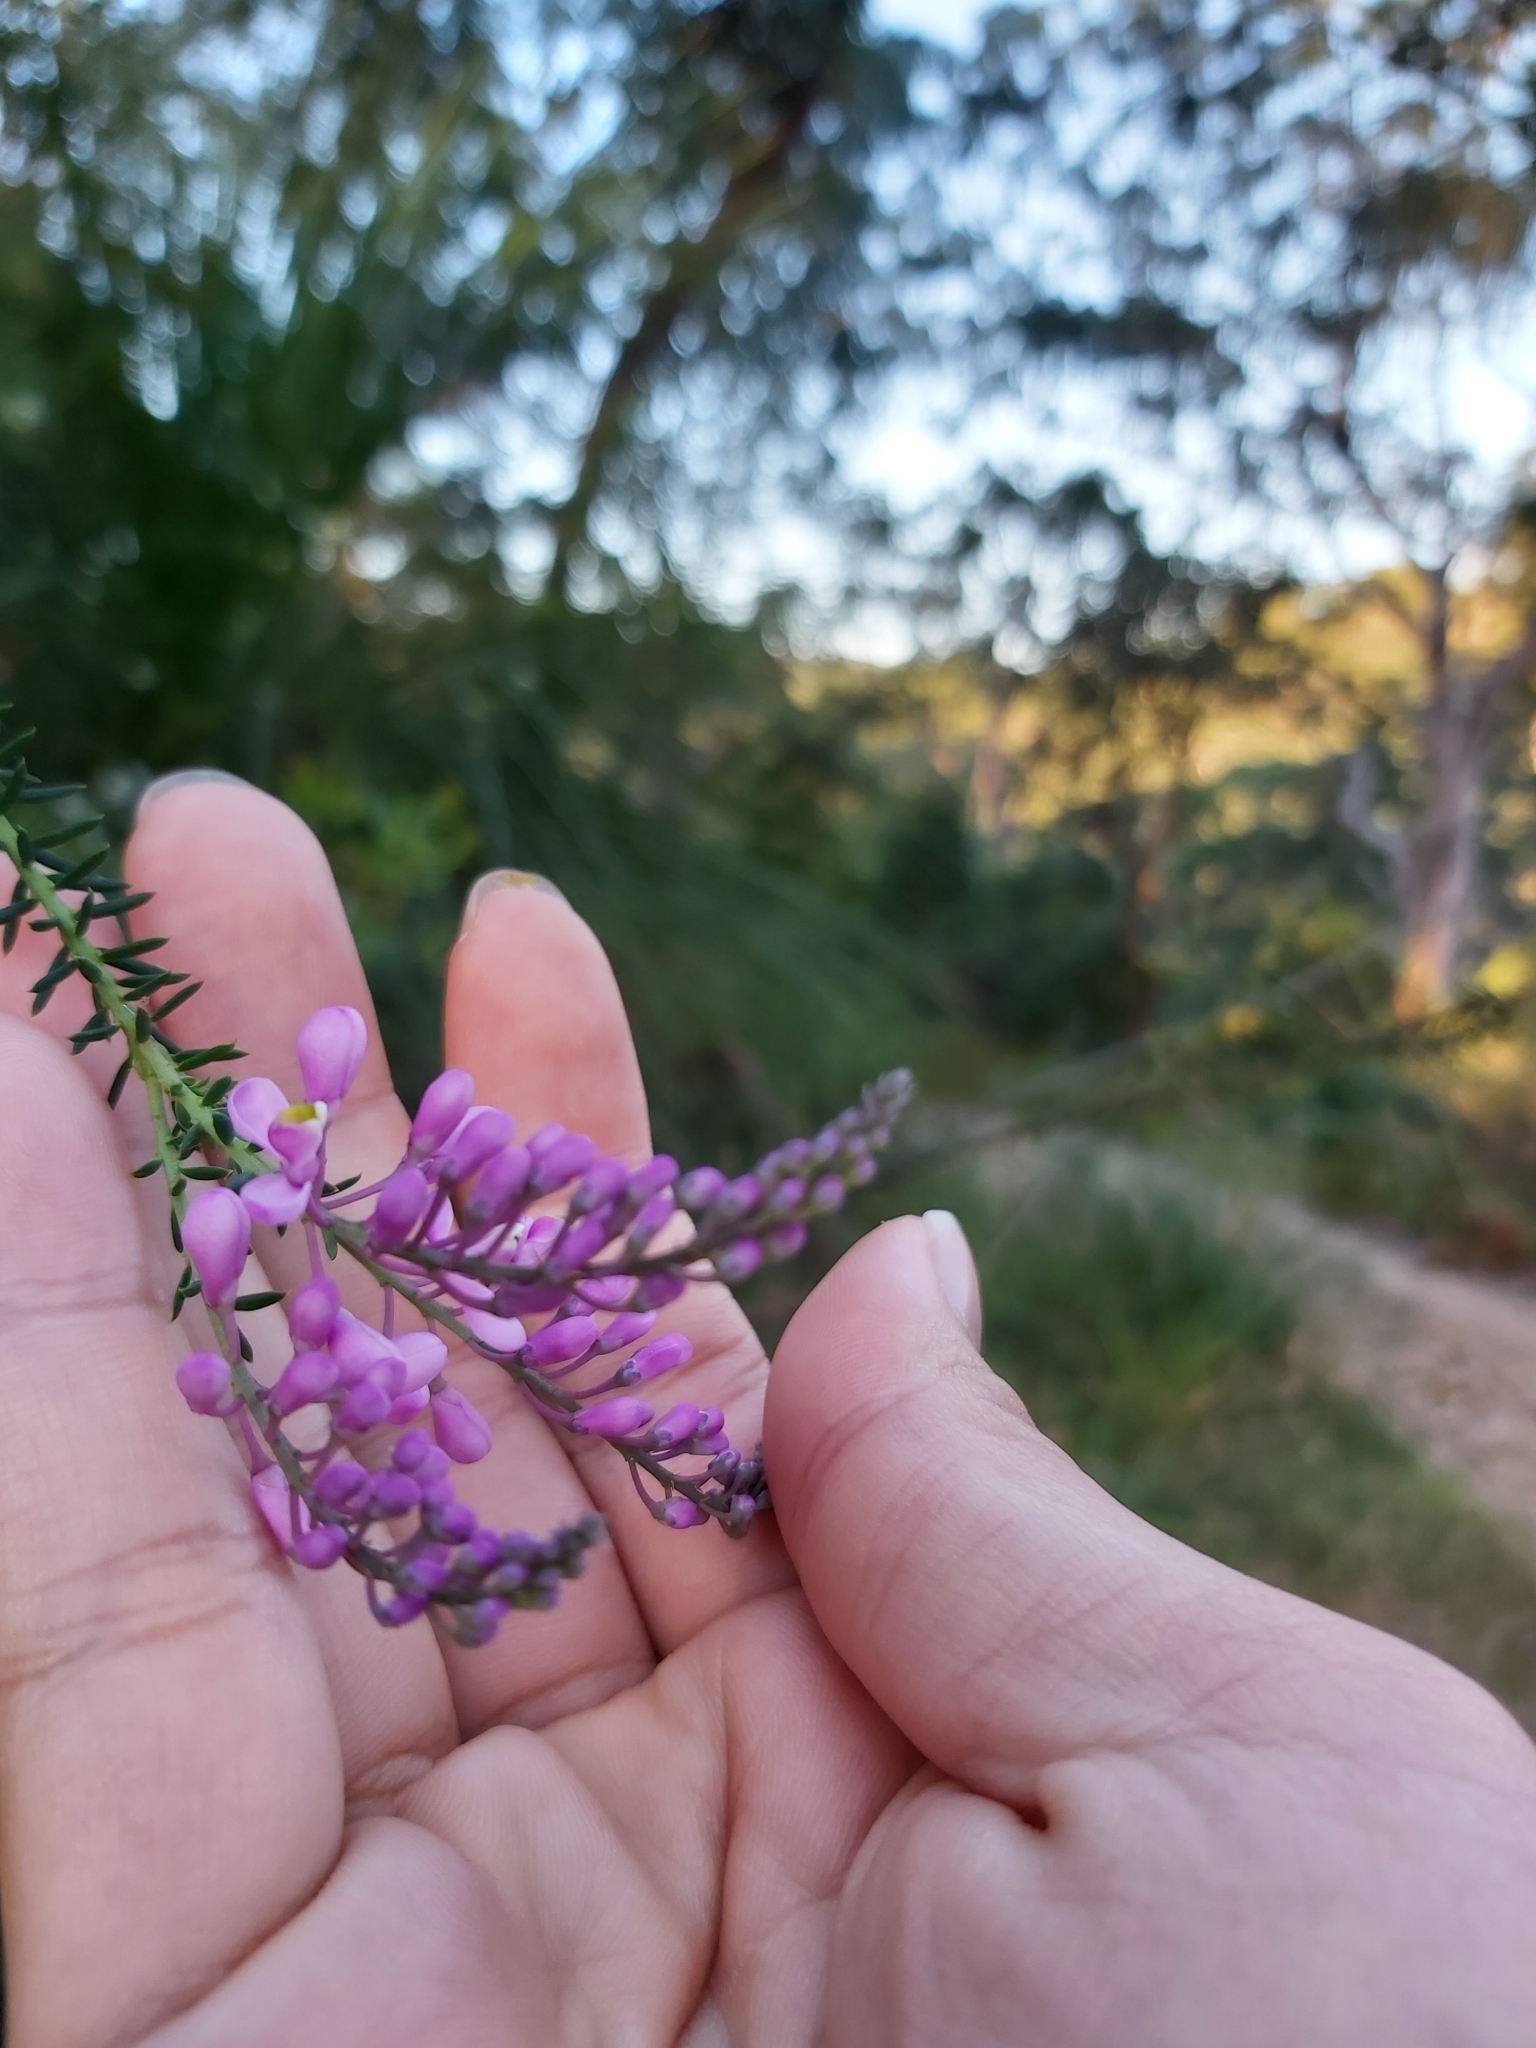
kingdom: Plantae
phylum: Tracheophyta
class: Magnoliopsida
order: Fabales
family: Polygalaceae
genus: Comesperma
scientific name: Comesperma ericinum
